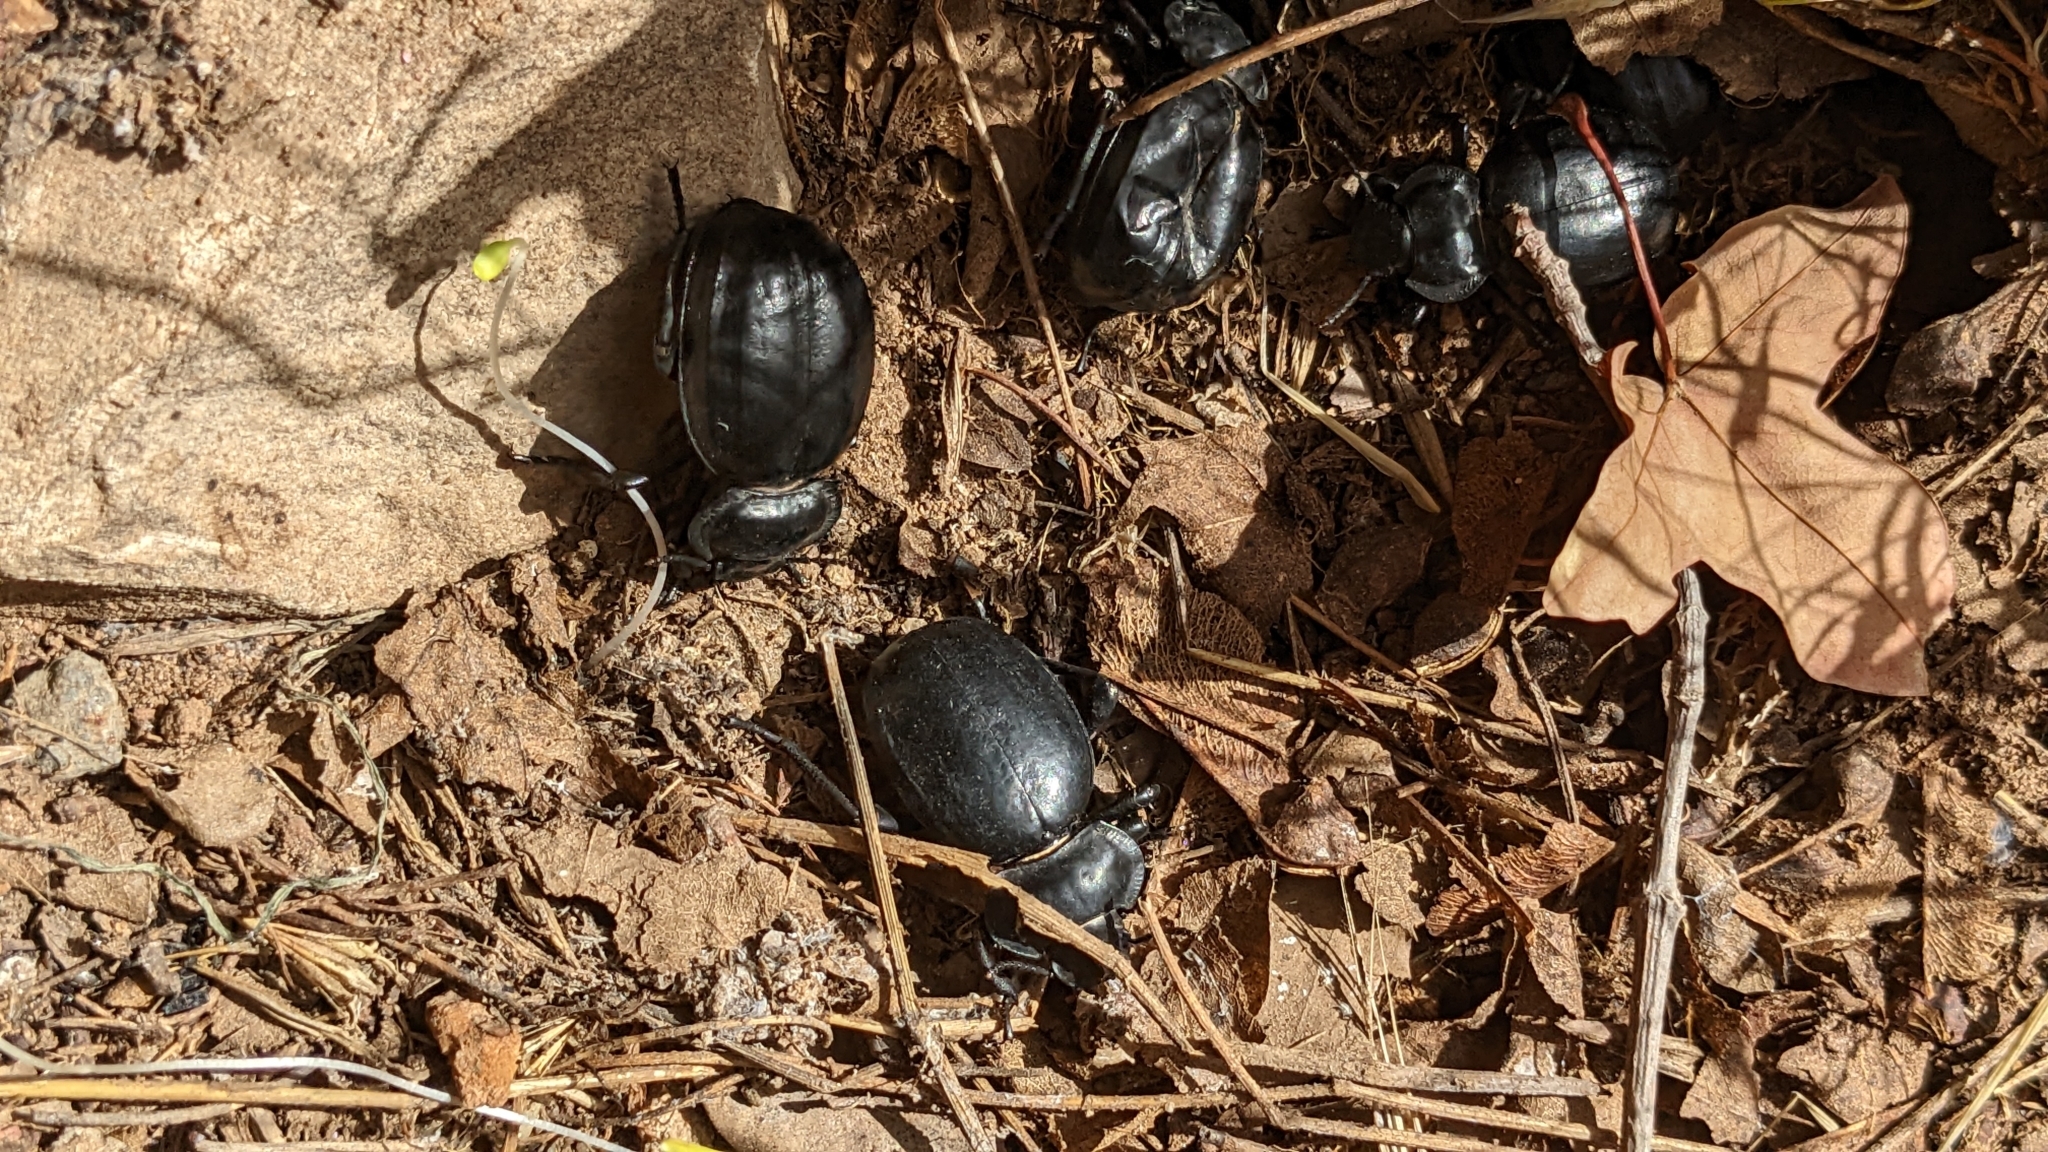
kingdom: Animalia
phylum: Arthropoda
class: Insecta
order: Coleoptera
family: Tenebrionidae
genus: Morica
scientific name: Morica planata
